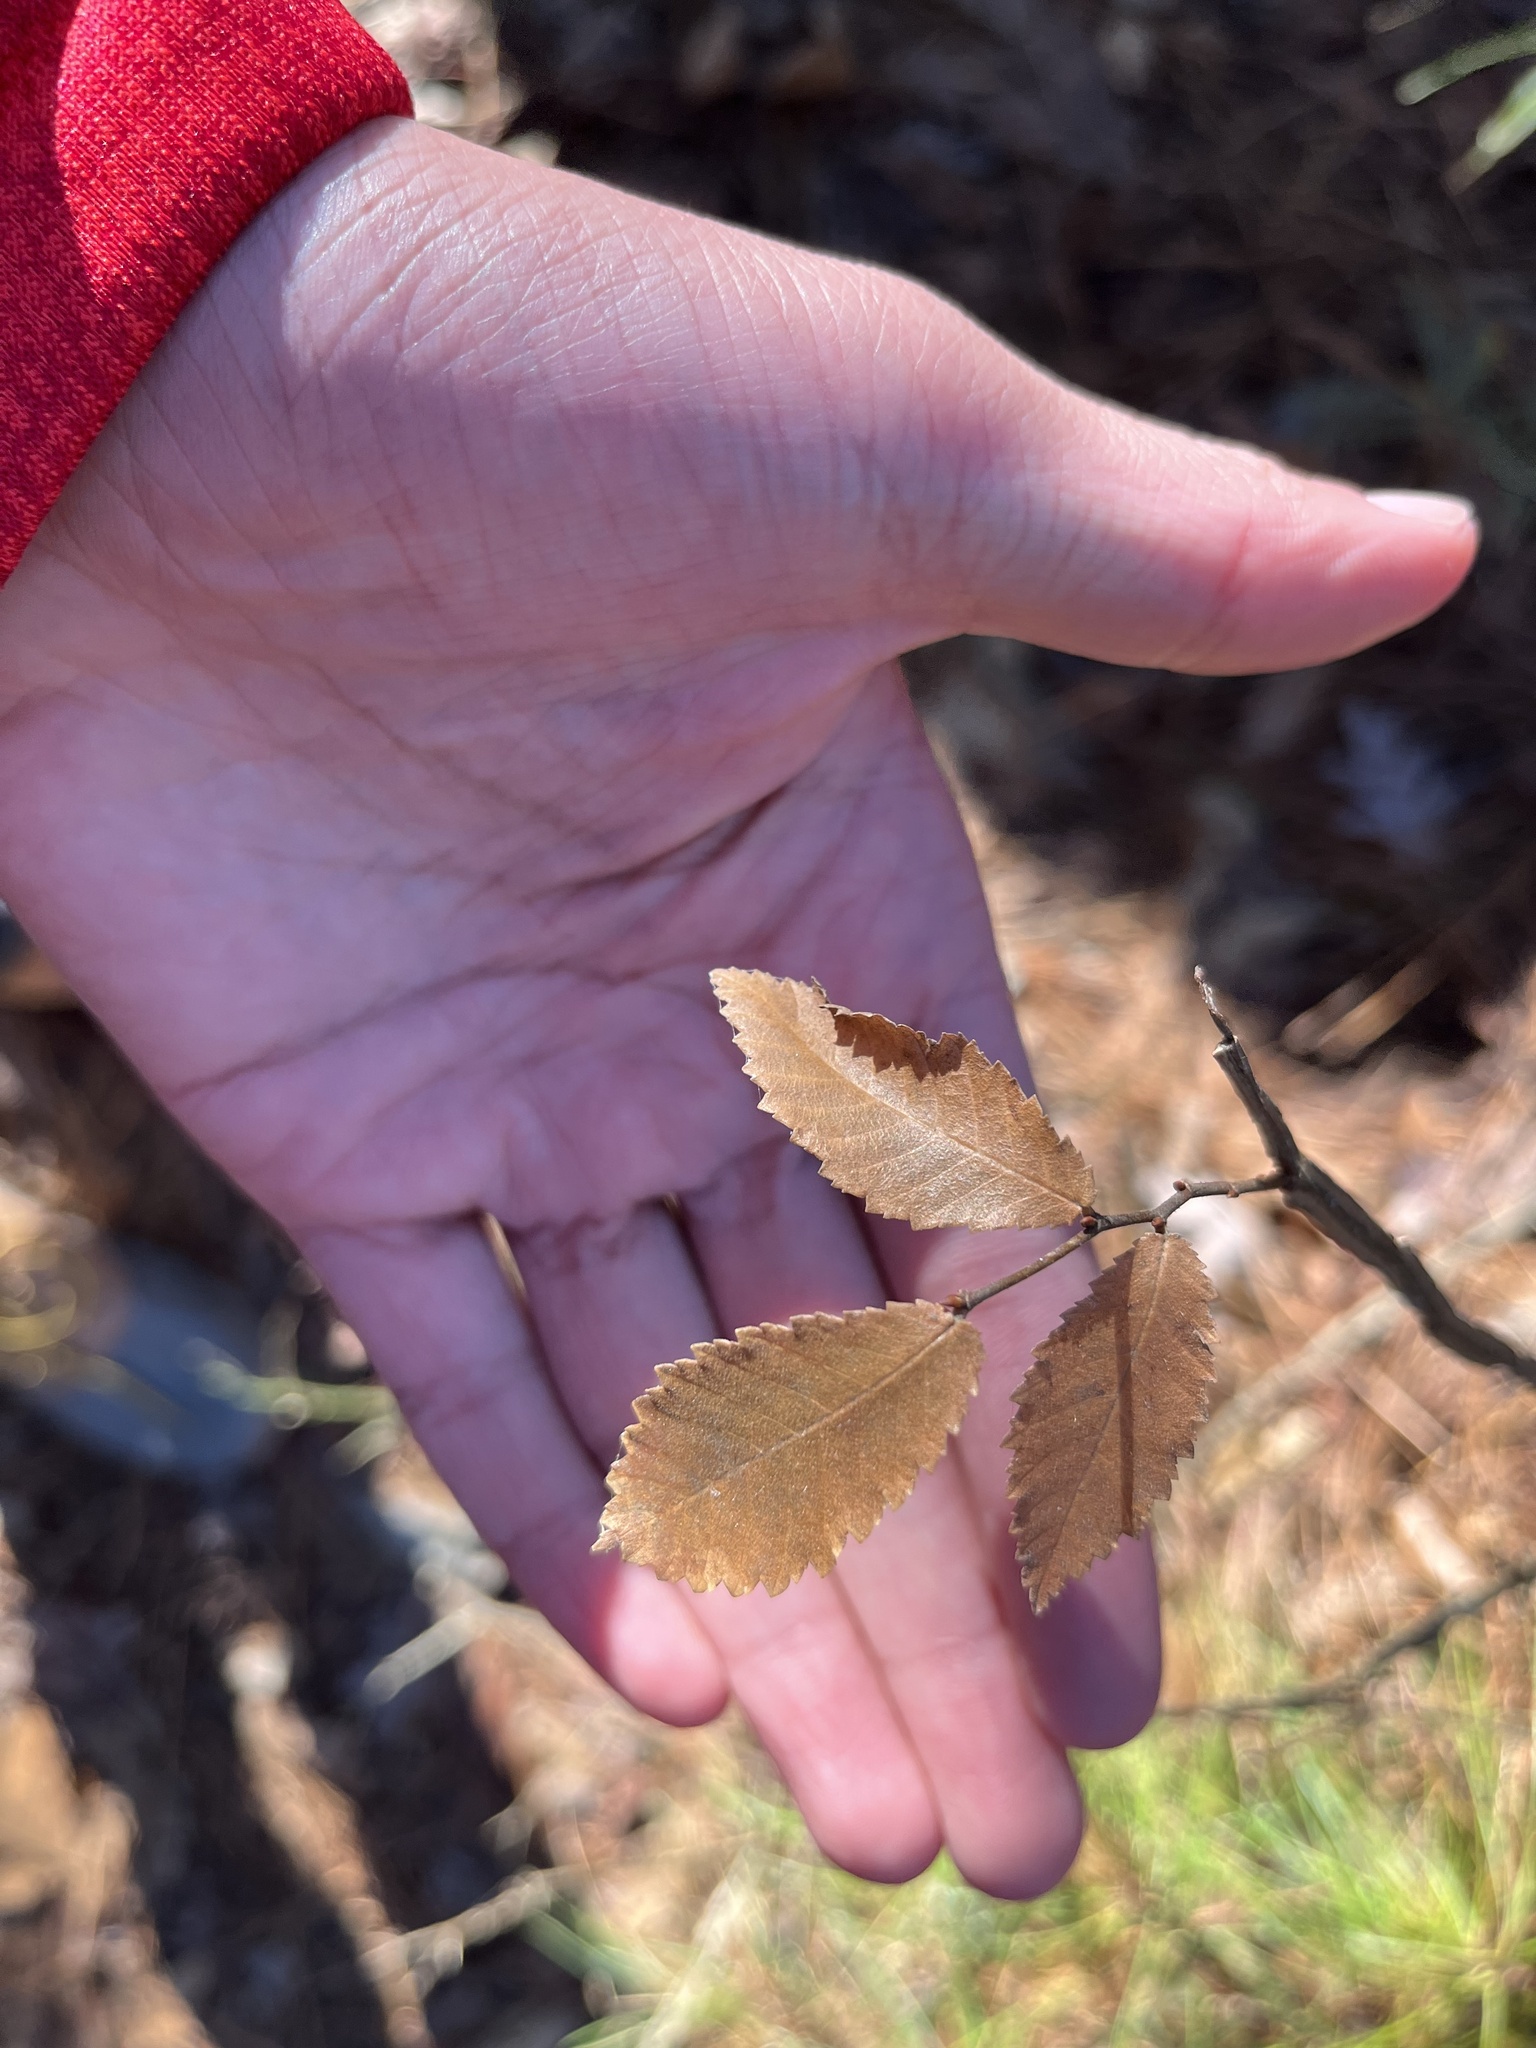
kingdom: Plantae
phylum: Tracheophyta
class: Magnoliopsida
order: Rosales
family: Ulmaceae
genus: Ulmus
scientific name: Ulmus alata
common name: Winged elm
